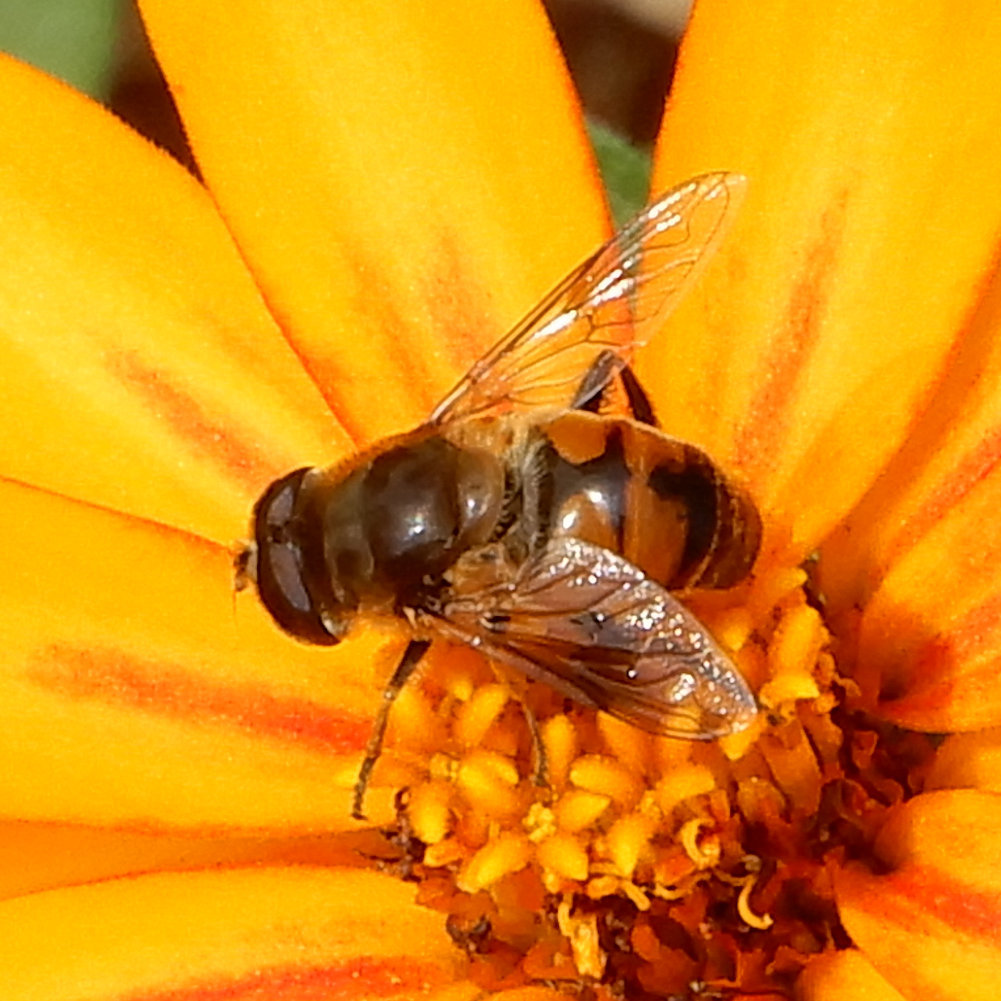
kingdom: Animalia
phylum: Arthropoda
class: Insecta
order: Diptera
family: Syrphidae
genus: Eristalis
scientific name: Eristalis tenax
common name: Drone fly
